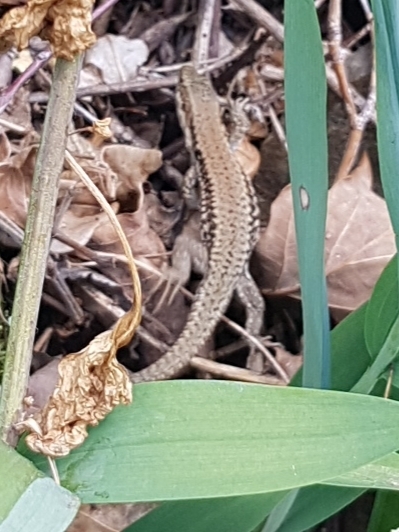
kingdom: Animalia
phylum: Chordata
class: Squamata
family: Lacertidae
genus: Podarcis
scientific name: Podarcis muralis
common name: Common wall lizard
